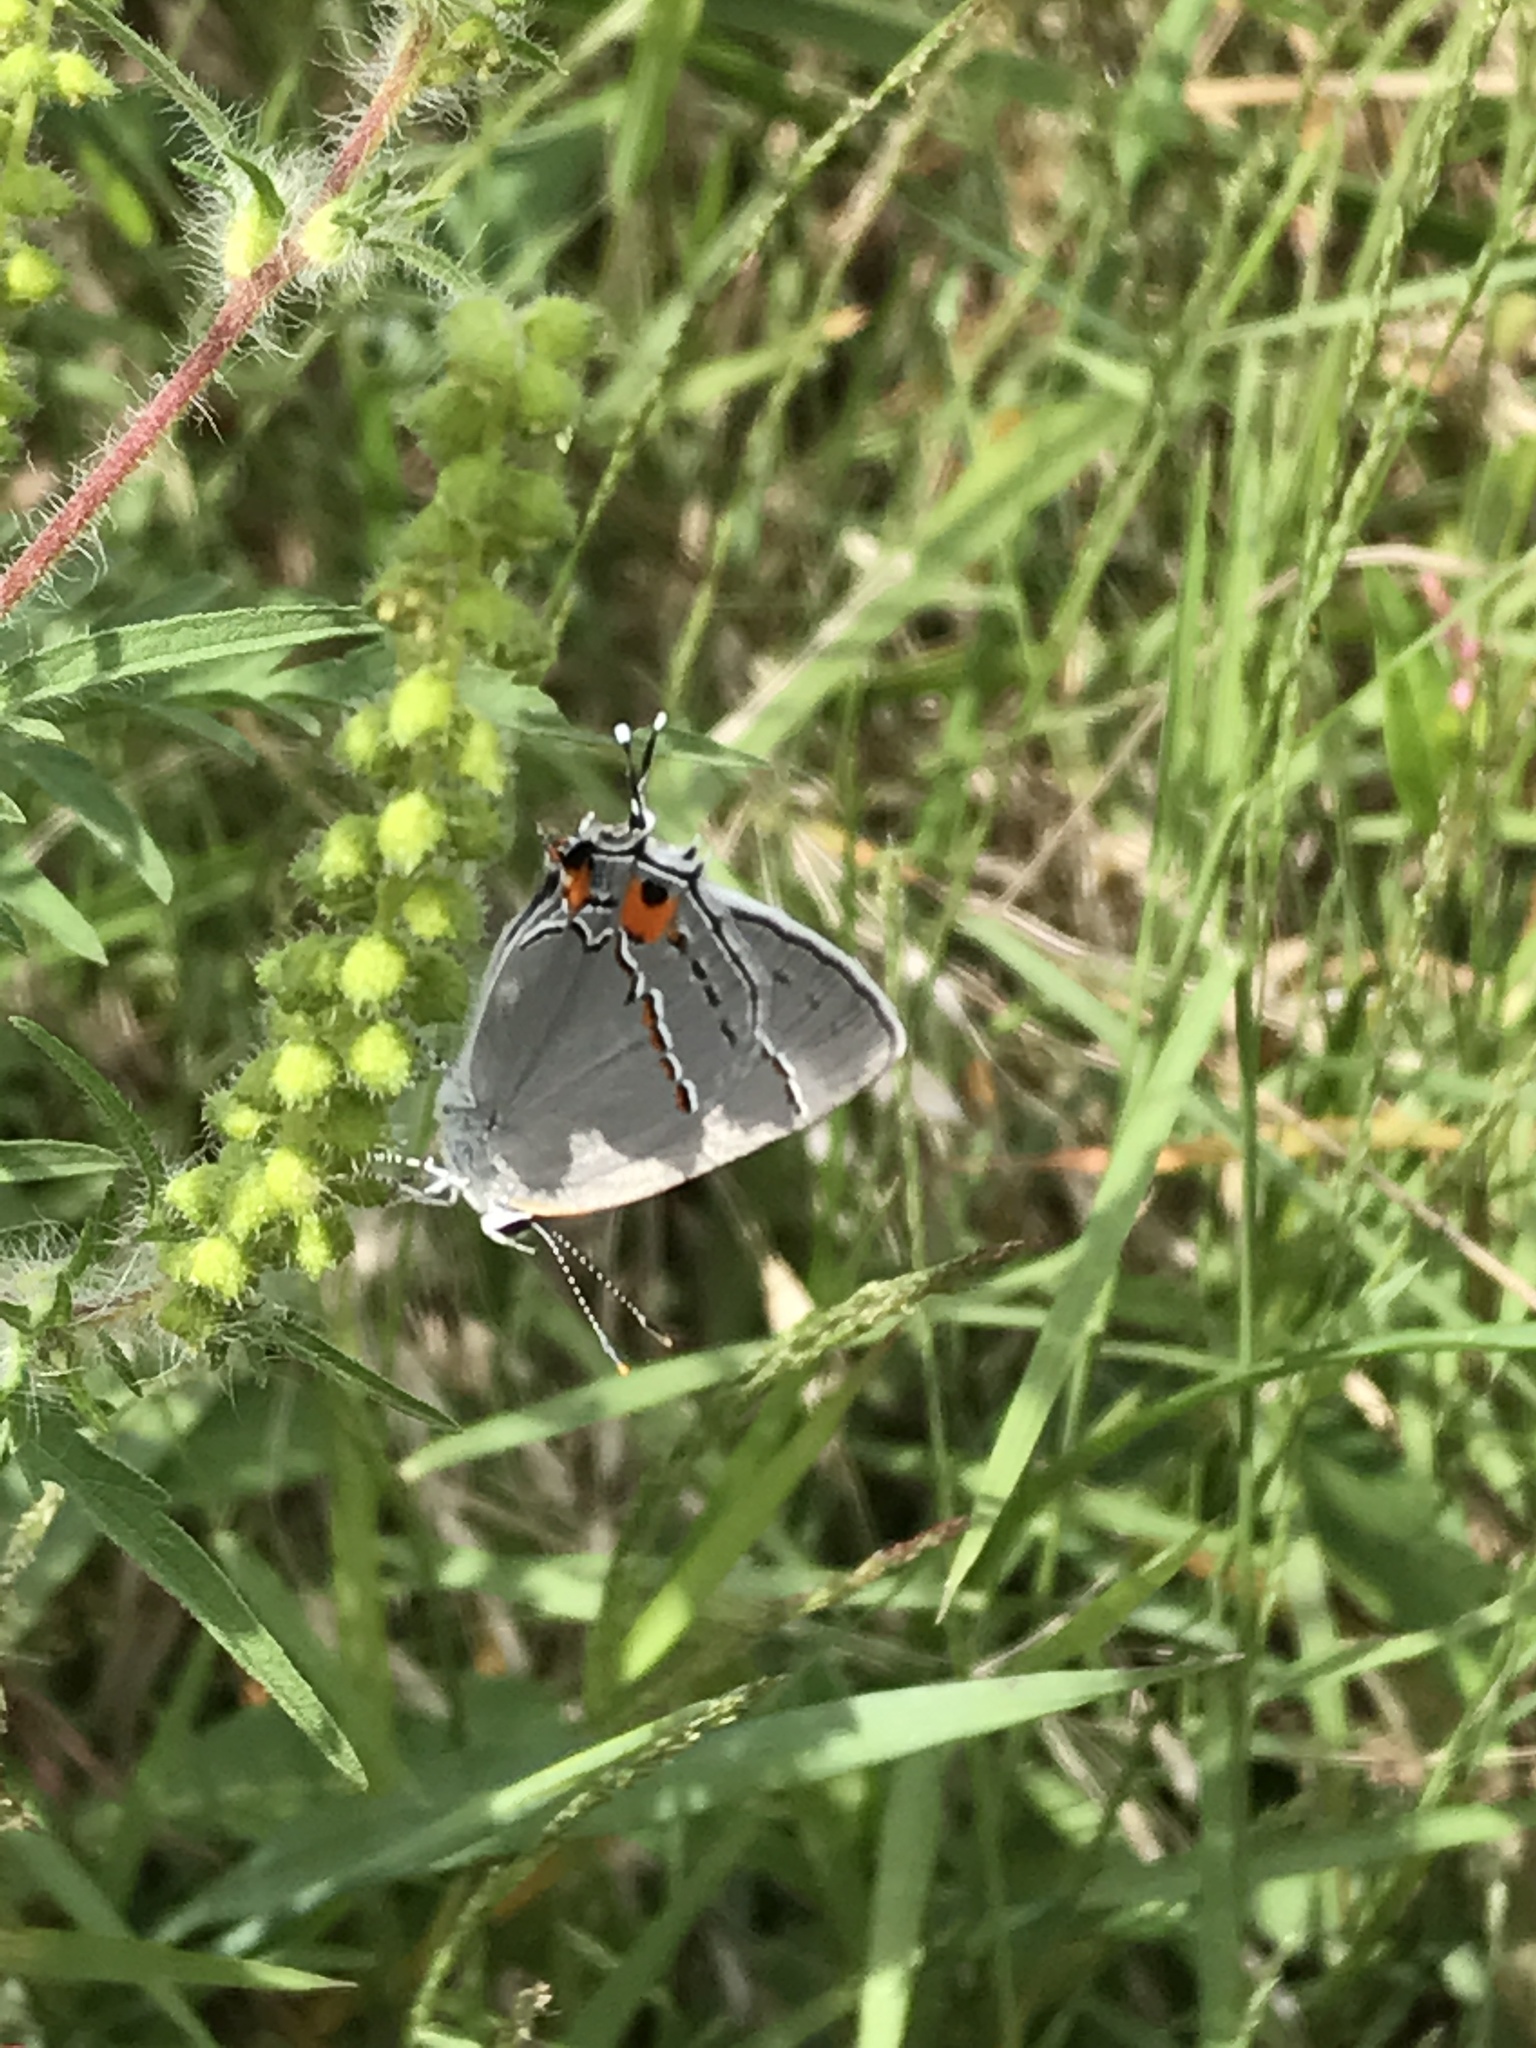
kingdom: Animalia
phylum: Arthropoda
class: Insecta
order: Lepidoptera
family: Lycaenidae
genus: Strymon
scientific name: Strymon melinus
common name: Gray hairstreak
